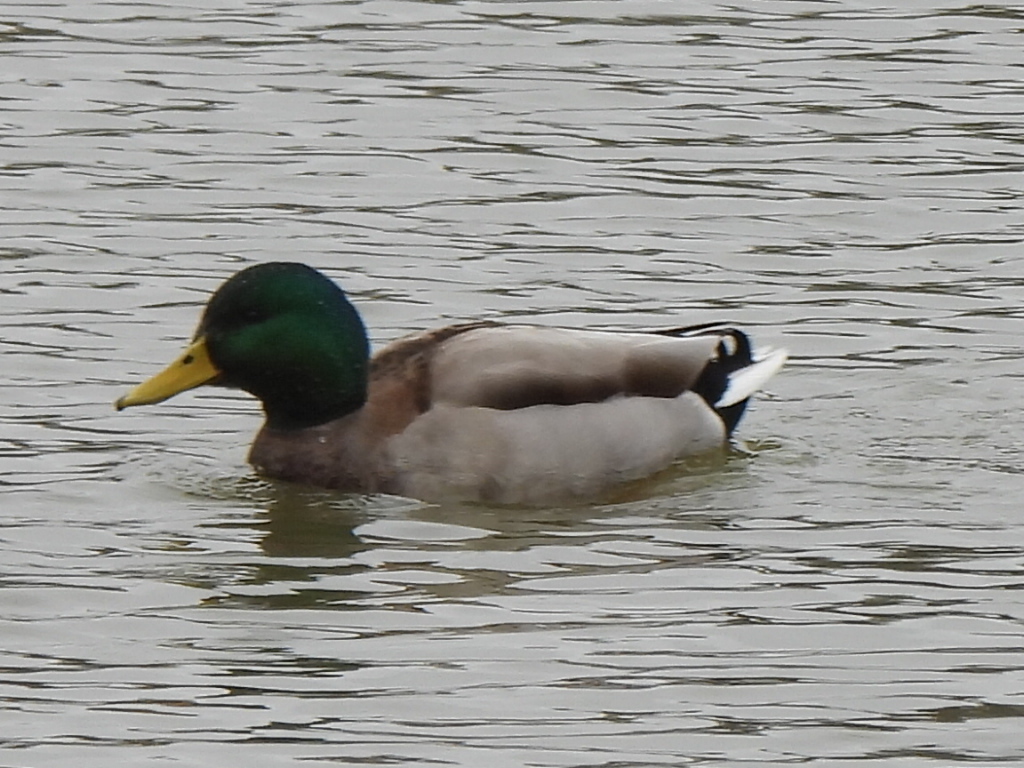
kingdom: Animalia
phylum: Chordata
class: Aves
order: Anseriformes
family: Anatidae
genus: Anas
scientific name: Anas platyrhynchos
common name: Mallard
